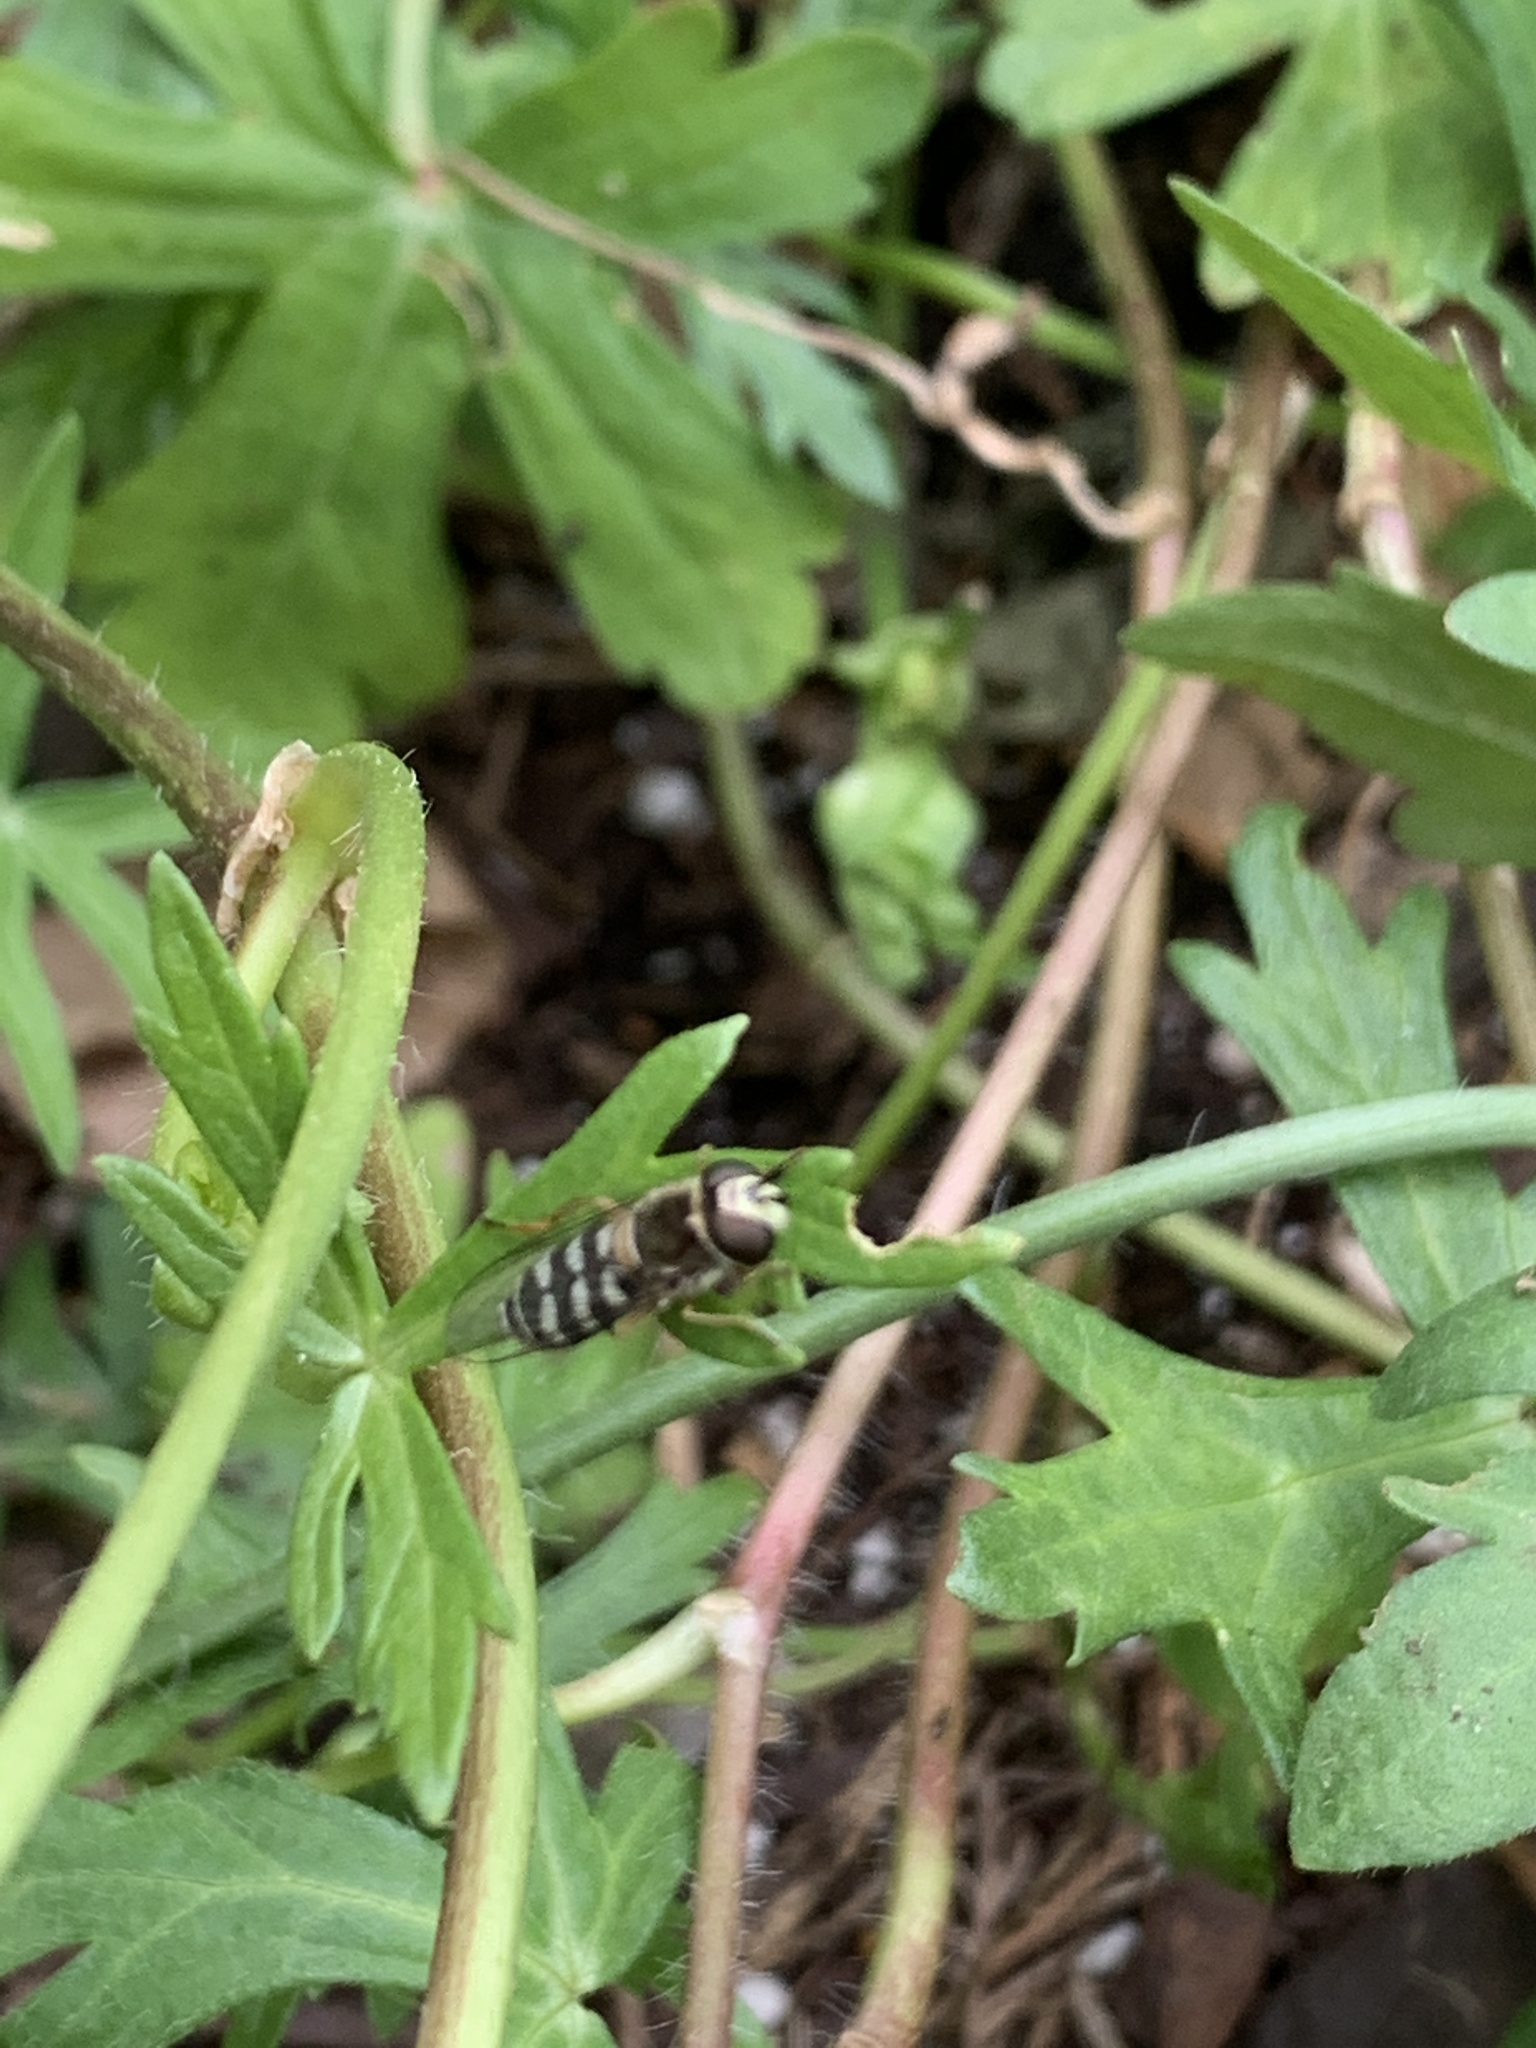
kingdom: Animalia
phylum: Arthropoda
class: Insecta
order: Diptera
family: Syrphidae
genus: Eupeodes
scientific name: Eupeodes volucris
